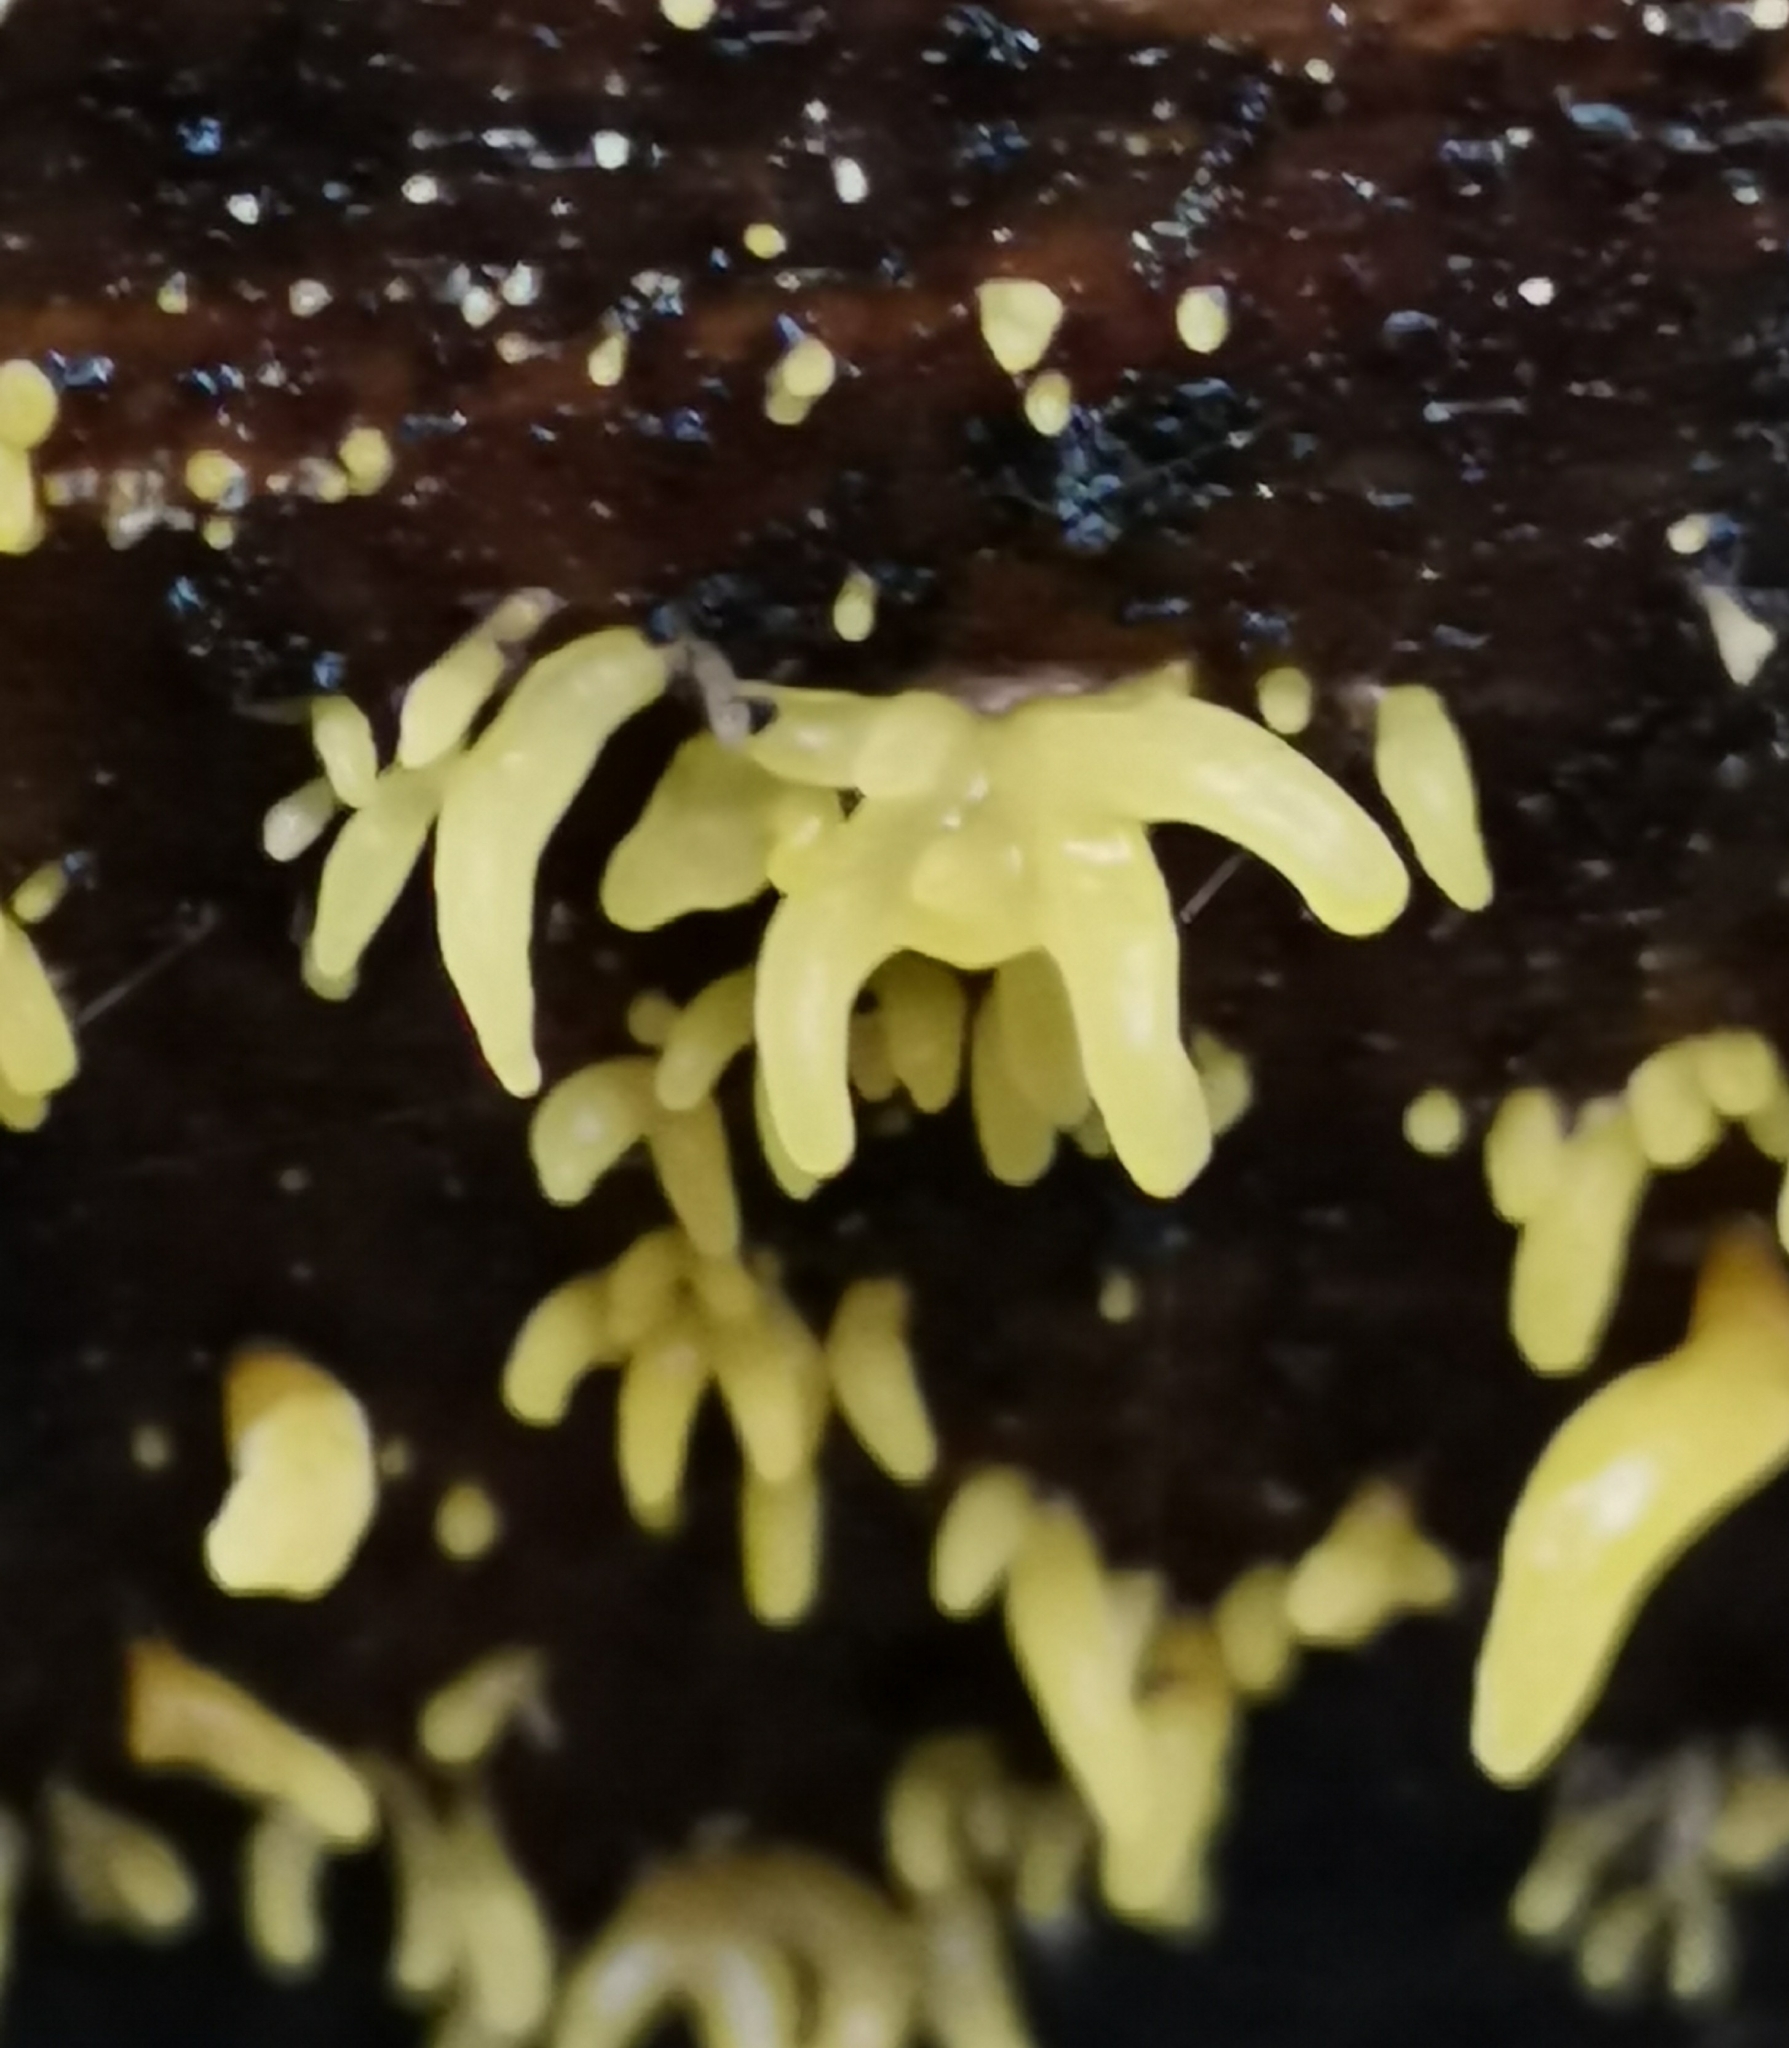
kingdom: Fungi
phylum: Basidiomycota
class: Dacrymycetes
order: Dacrymycetales
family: Dacrymycetaceae
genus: Calocera
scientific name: Calocera cornea
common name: Small stagshorn
